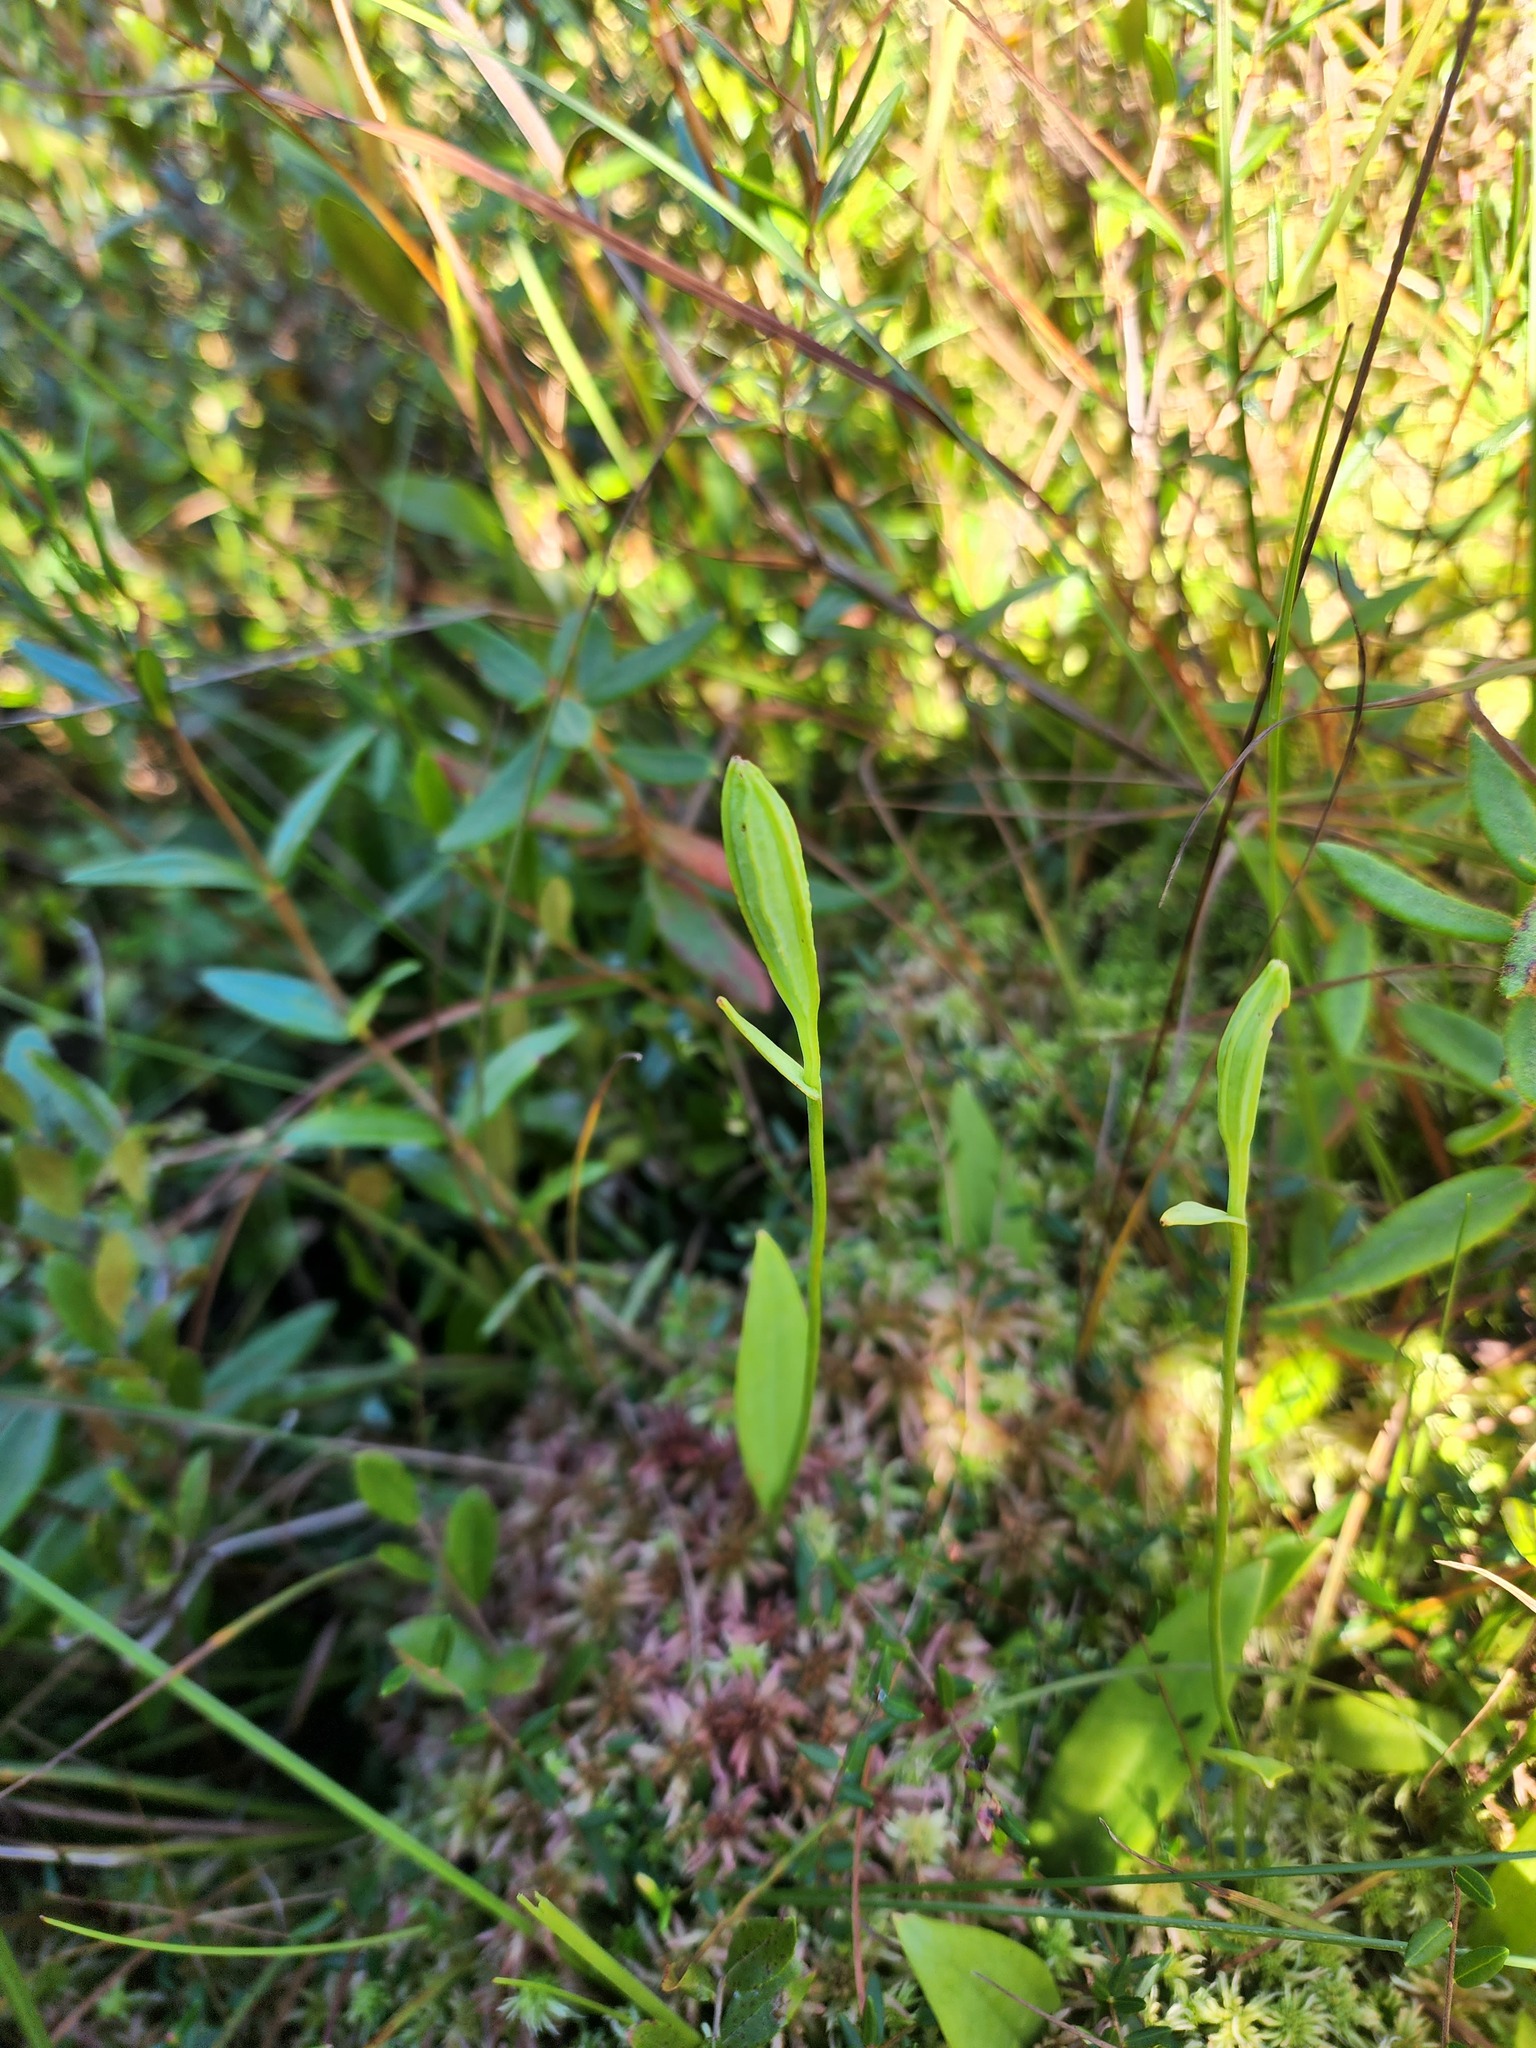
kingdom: Plantae
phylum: Tracheophyta
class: Liliopsida
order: Asparagales
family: Orchidaceae
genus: Pogonia
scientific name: Pogonia ophioglossoides
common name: Rose pogonia
